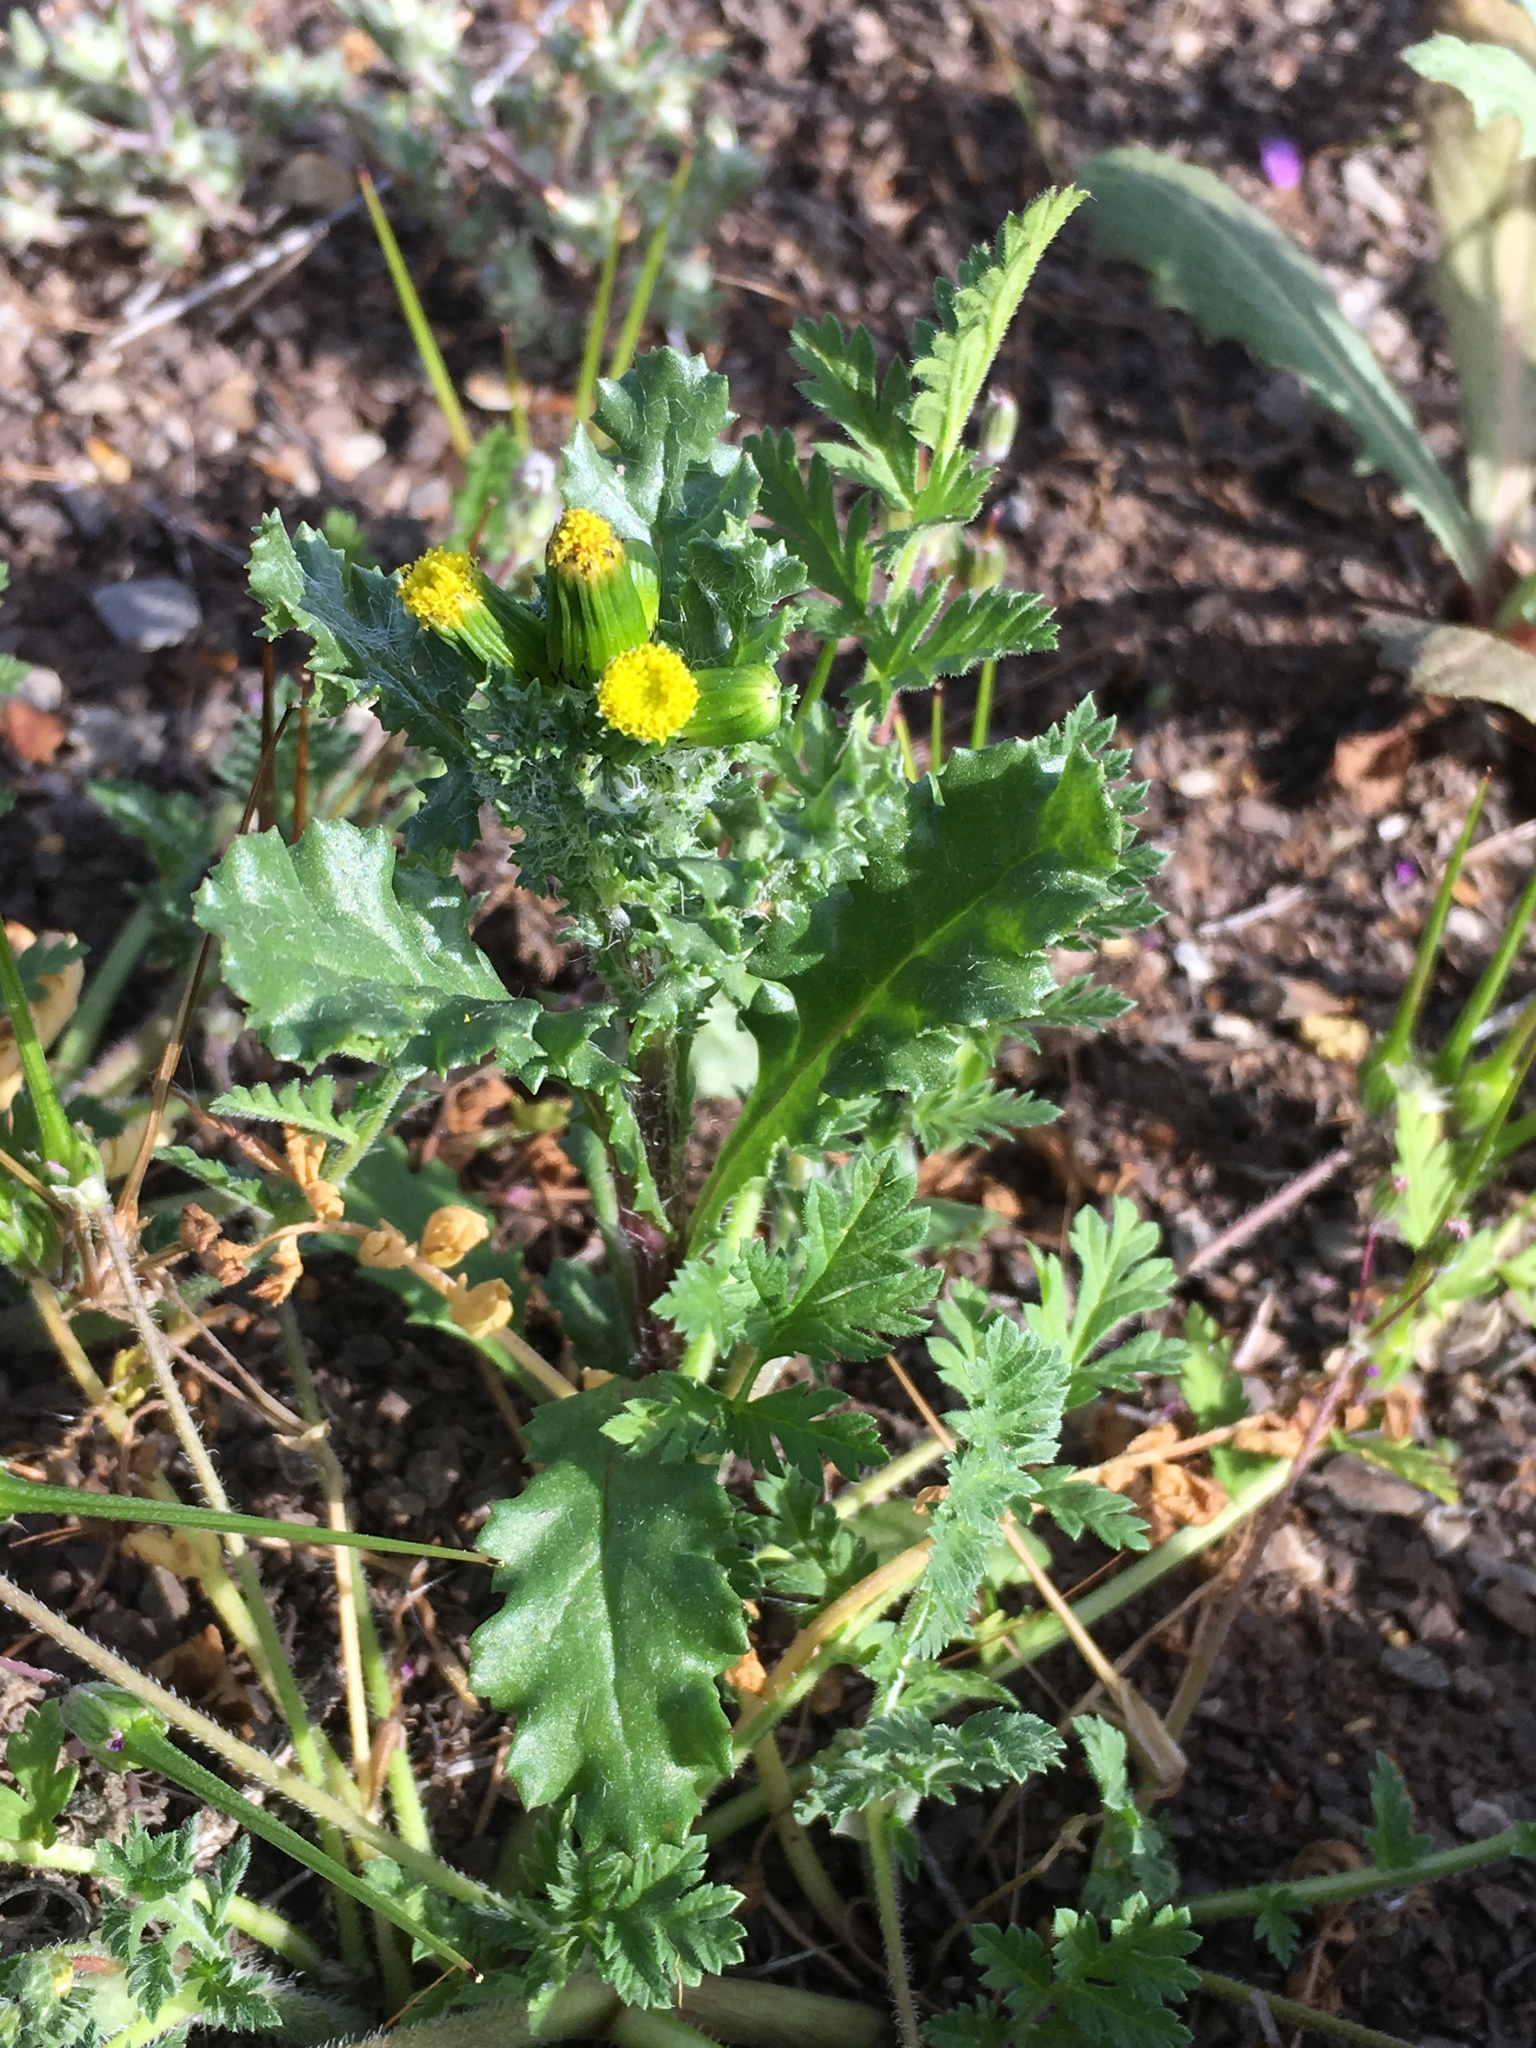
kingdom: Plantae
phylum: Tracheophyta
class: Magnoliopsida
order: Asterales
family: Asteraceae
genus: Senecio
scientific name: Senecio vulgaris
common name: Old-man-in-the-spring
